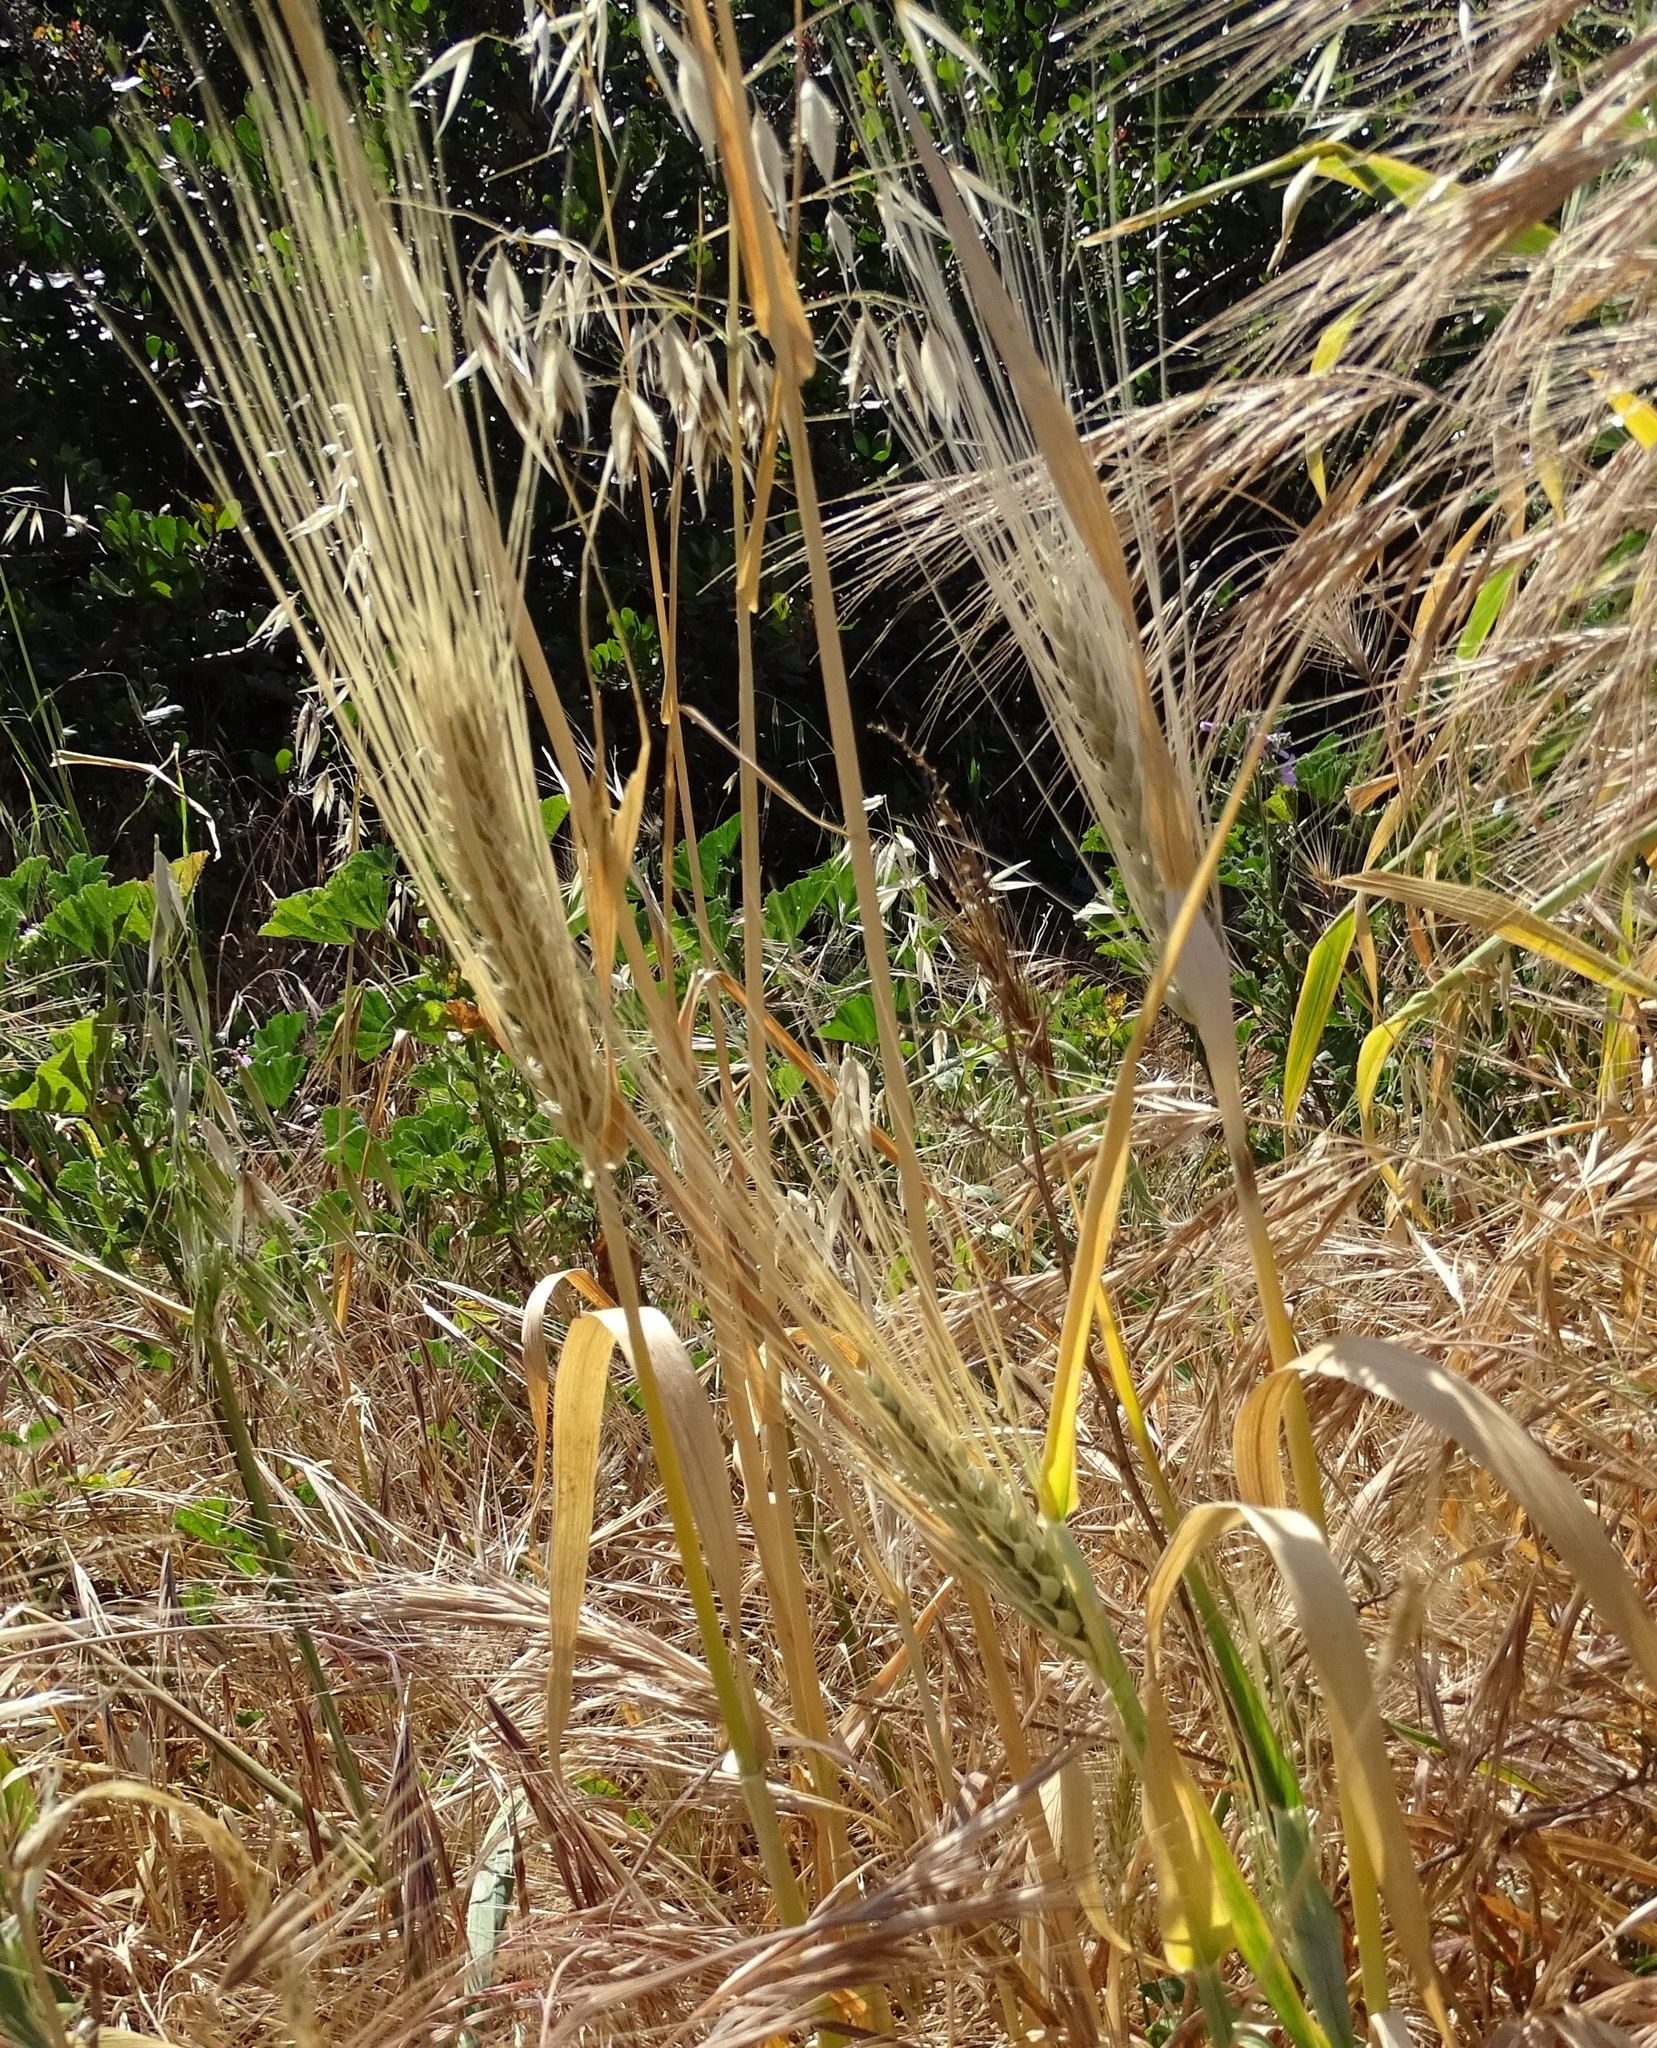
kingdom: Plantae
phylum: Tracheophyta
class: Liliopsida
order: Poales
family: Poaceae
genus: Hordeum
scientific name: Hordeum vulgare
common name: Common barley
